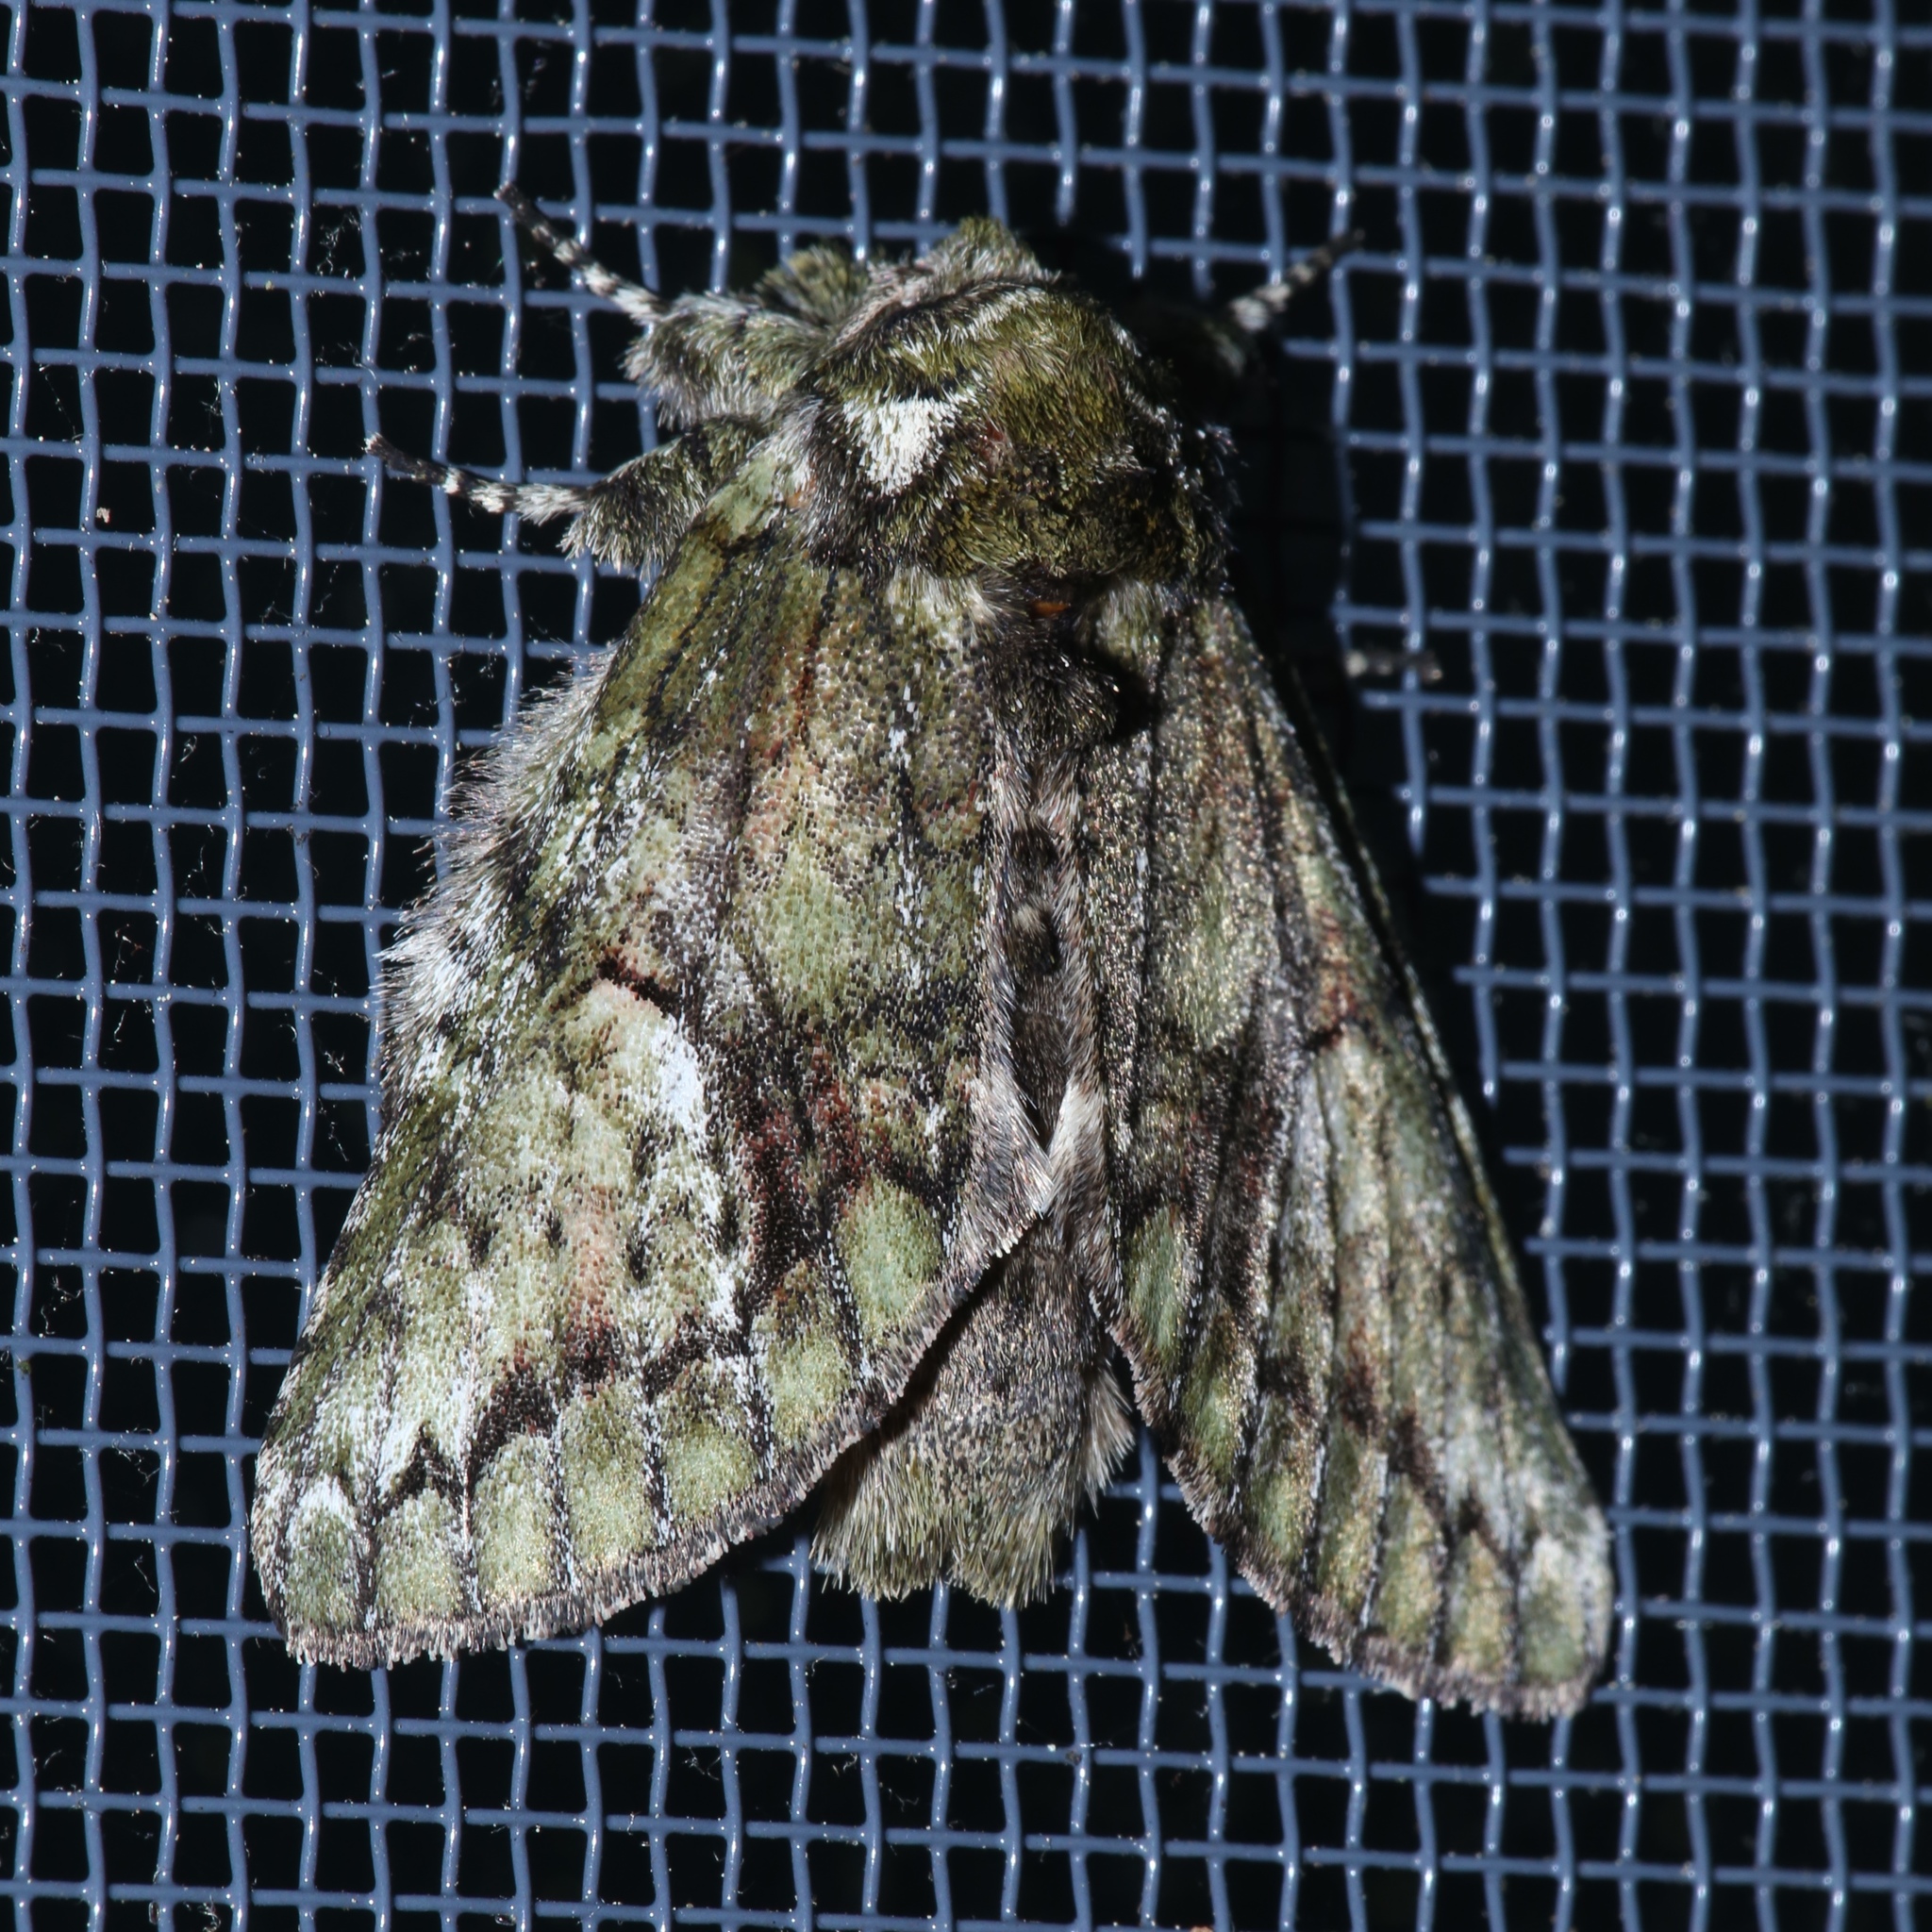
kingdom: Animalia
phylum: Arthropoda
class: Insecta
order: Lepidoptera
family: Notodontidae
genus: Heterocampa
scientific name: Heterocampa
